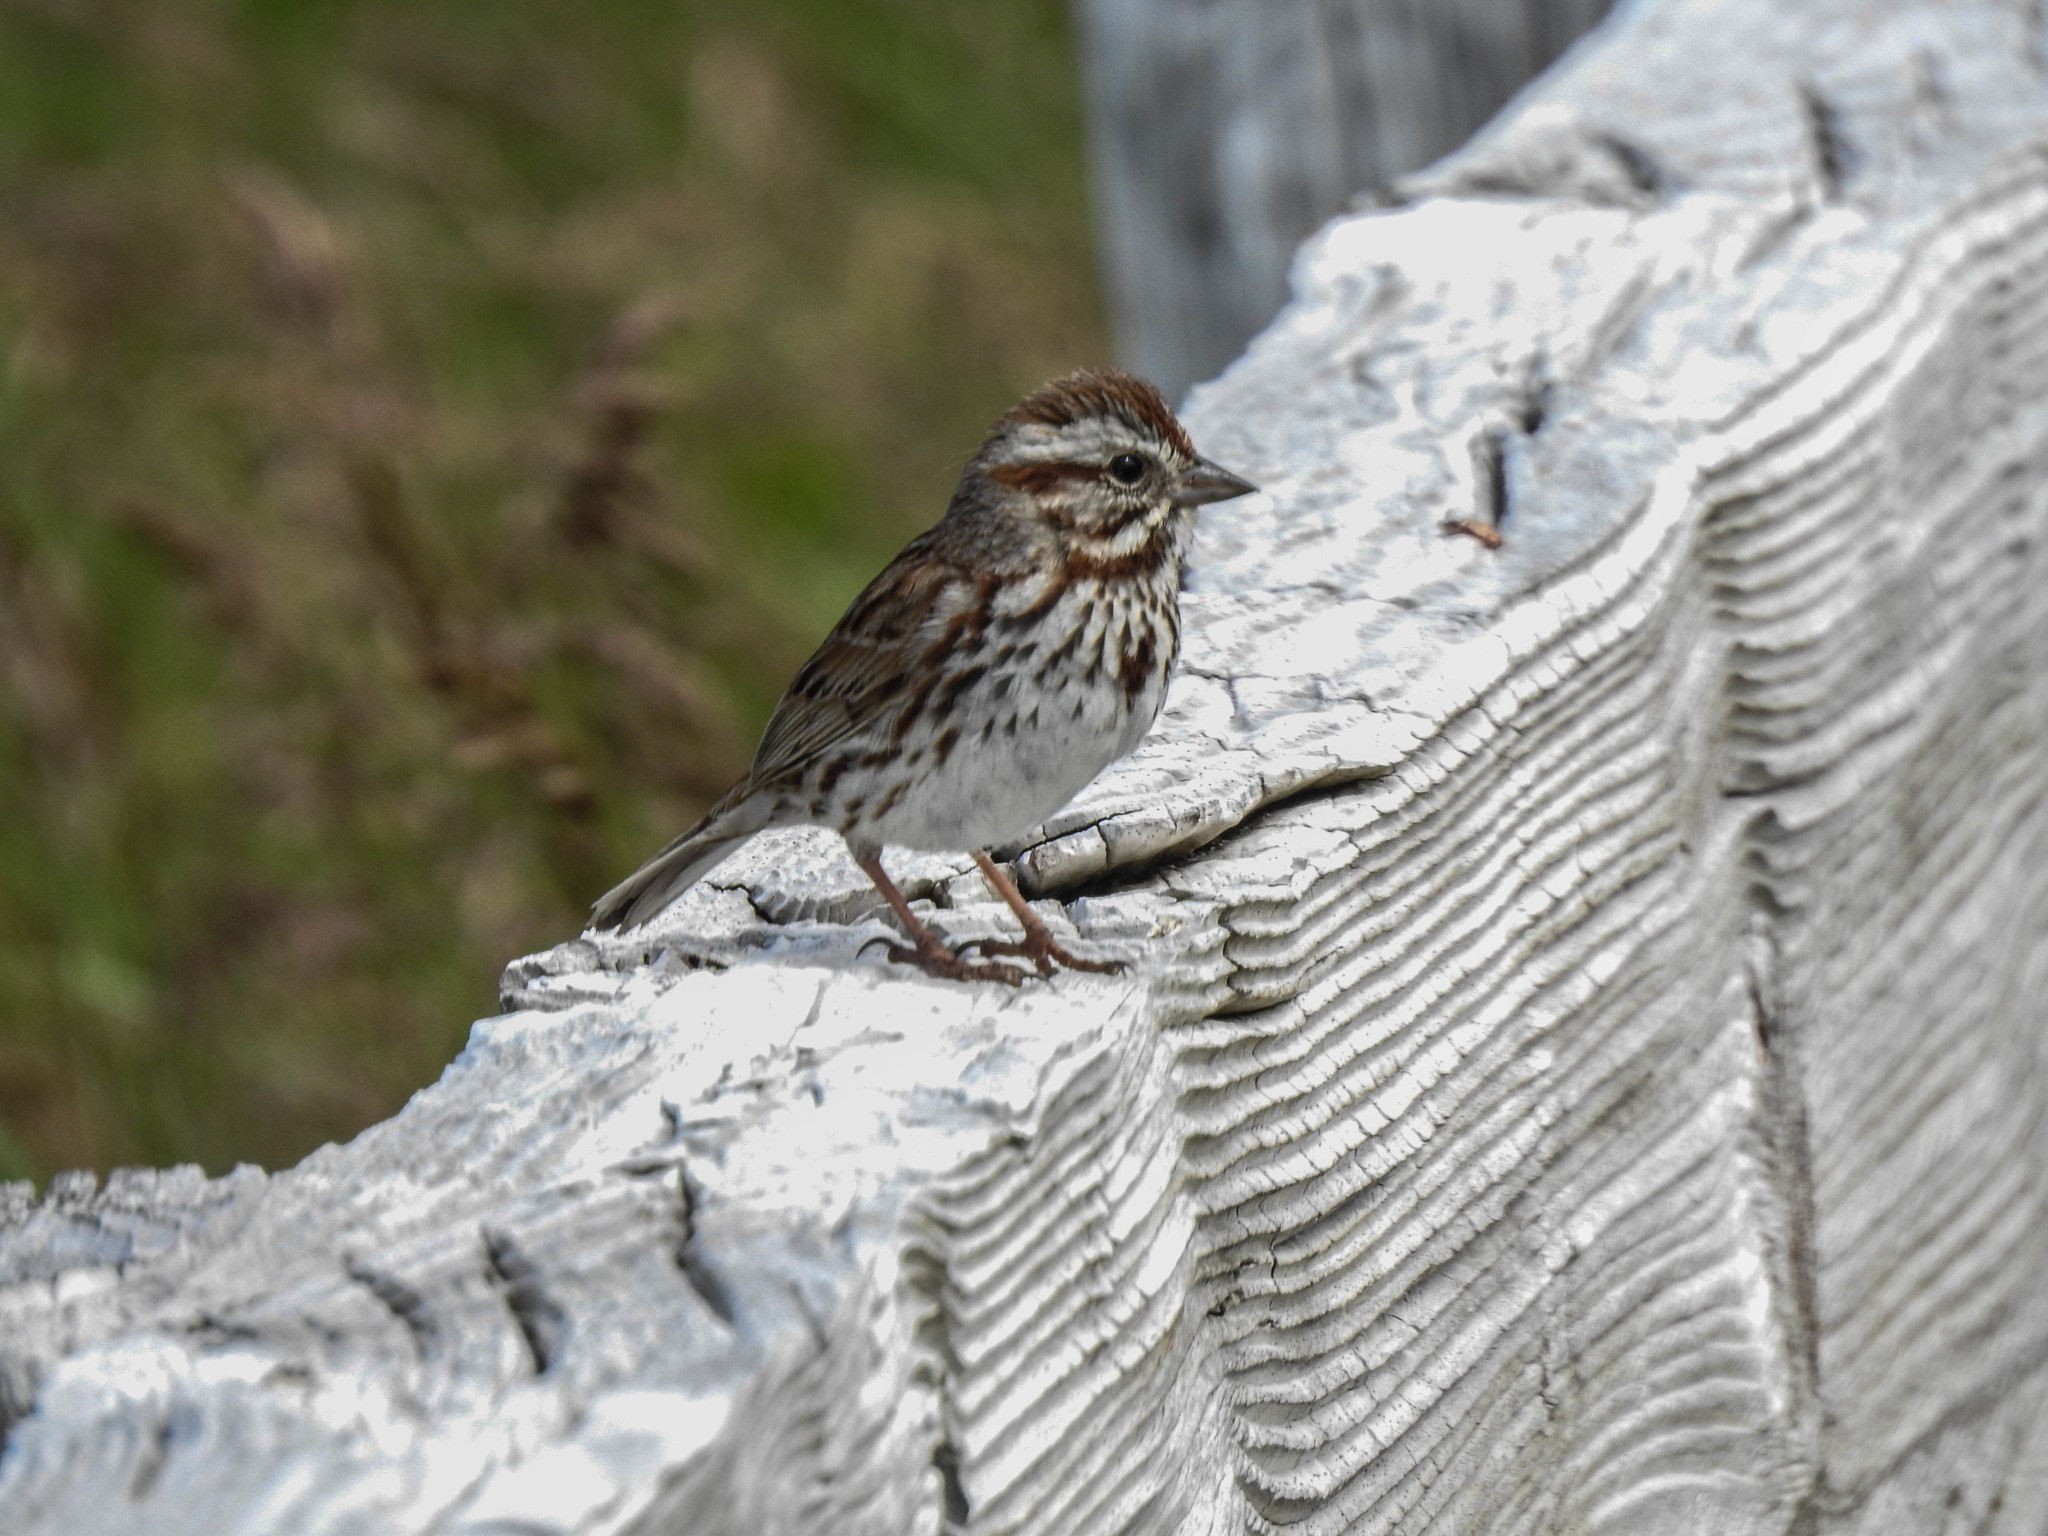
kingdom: Animalia
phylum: Chordata
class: Aves
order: Passeriformes
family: Passerellidae
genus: Melospiza
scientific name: Melospiza melodia
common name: Song sparrow
